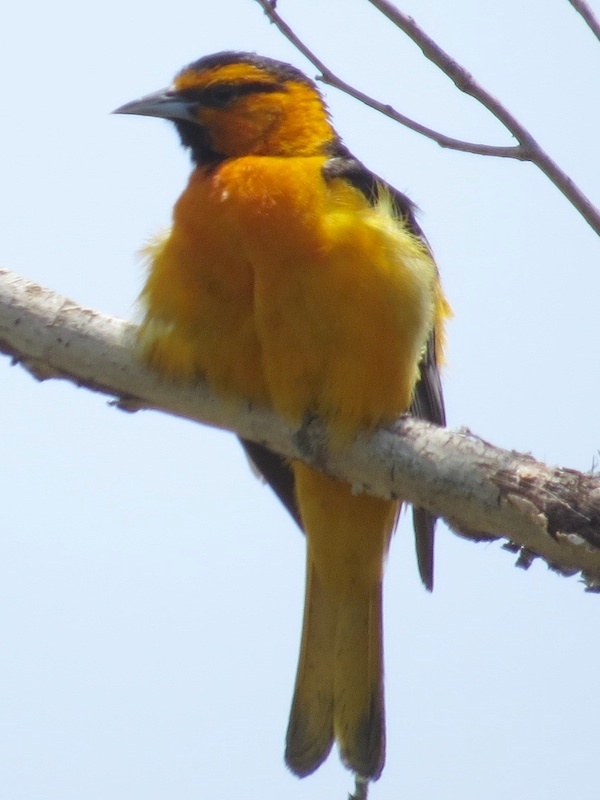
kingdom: Animalia
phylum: Chordata
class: Aves
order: Passeriformes
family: Icteridae
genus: Icterus
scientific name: Icterus bullockii
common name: Bullock's oriole
